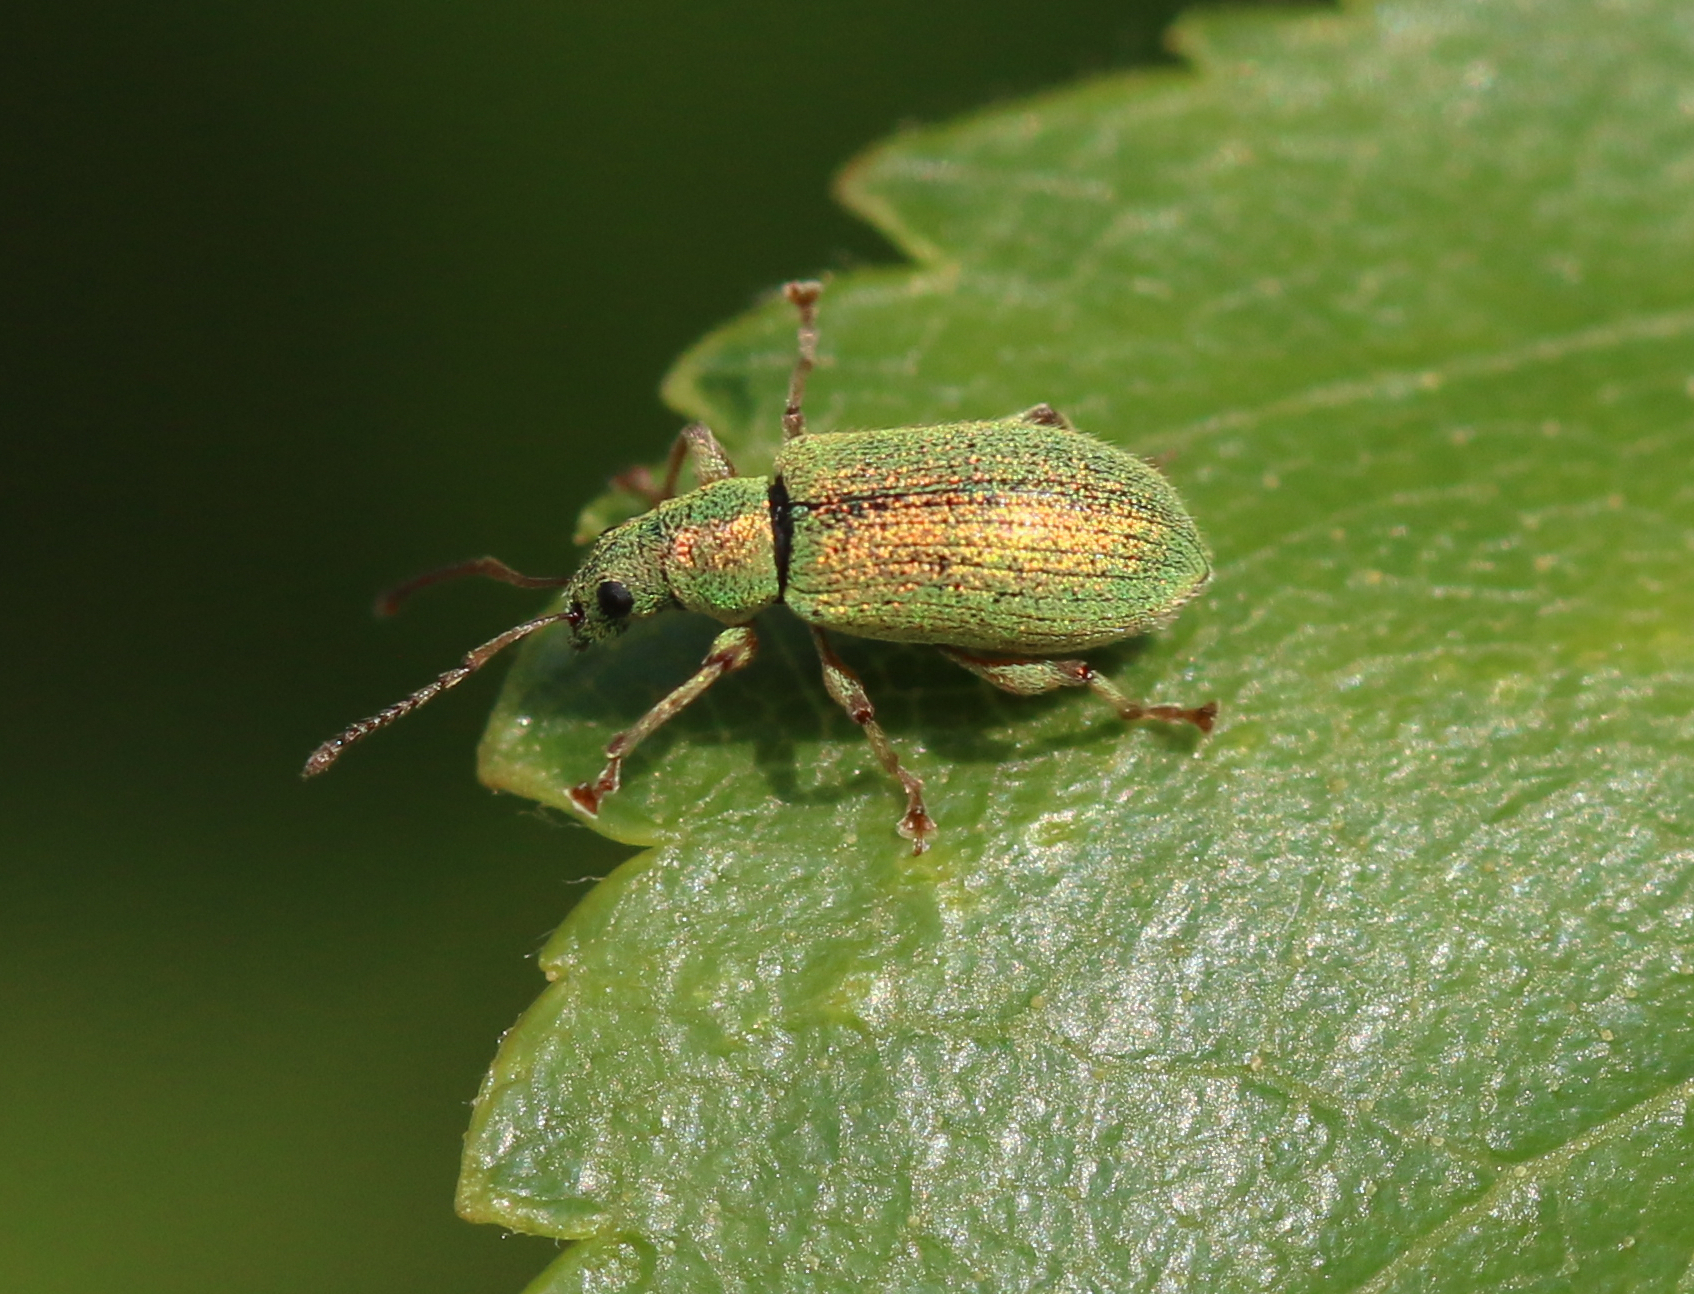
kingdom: Animalia
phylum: Arthropoda
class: Insecta
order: Coleoptera
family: Curculionidae
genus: Phyllobius
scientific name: Phyllobius argentatus
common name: Silver-green leaf weevil
